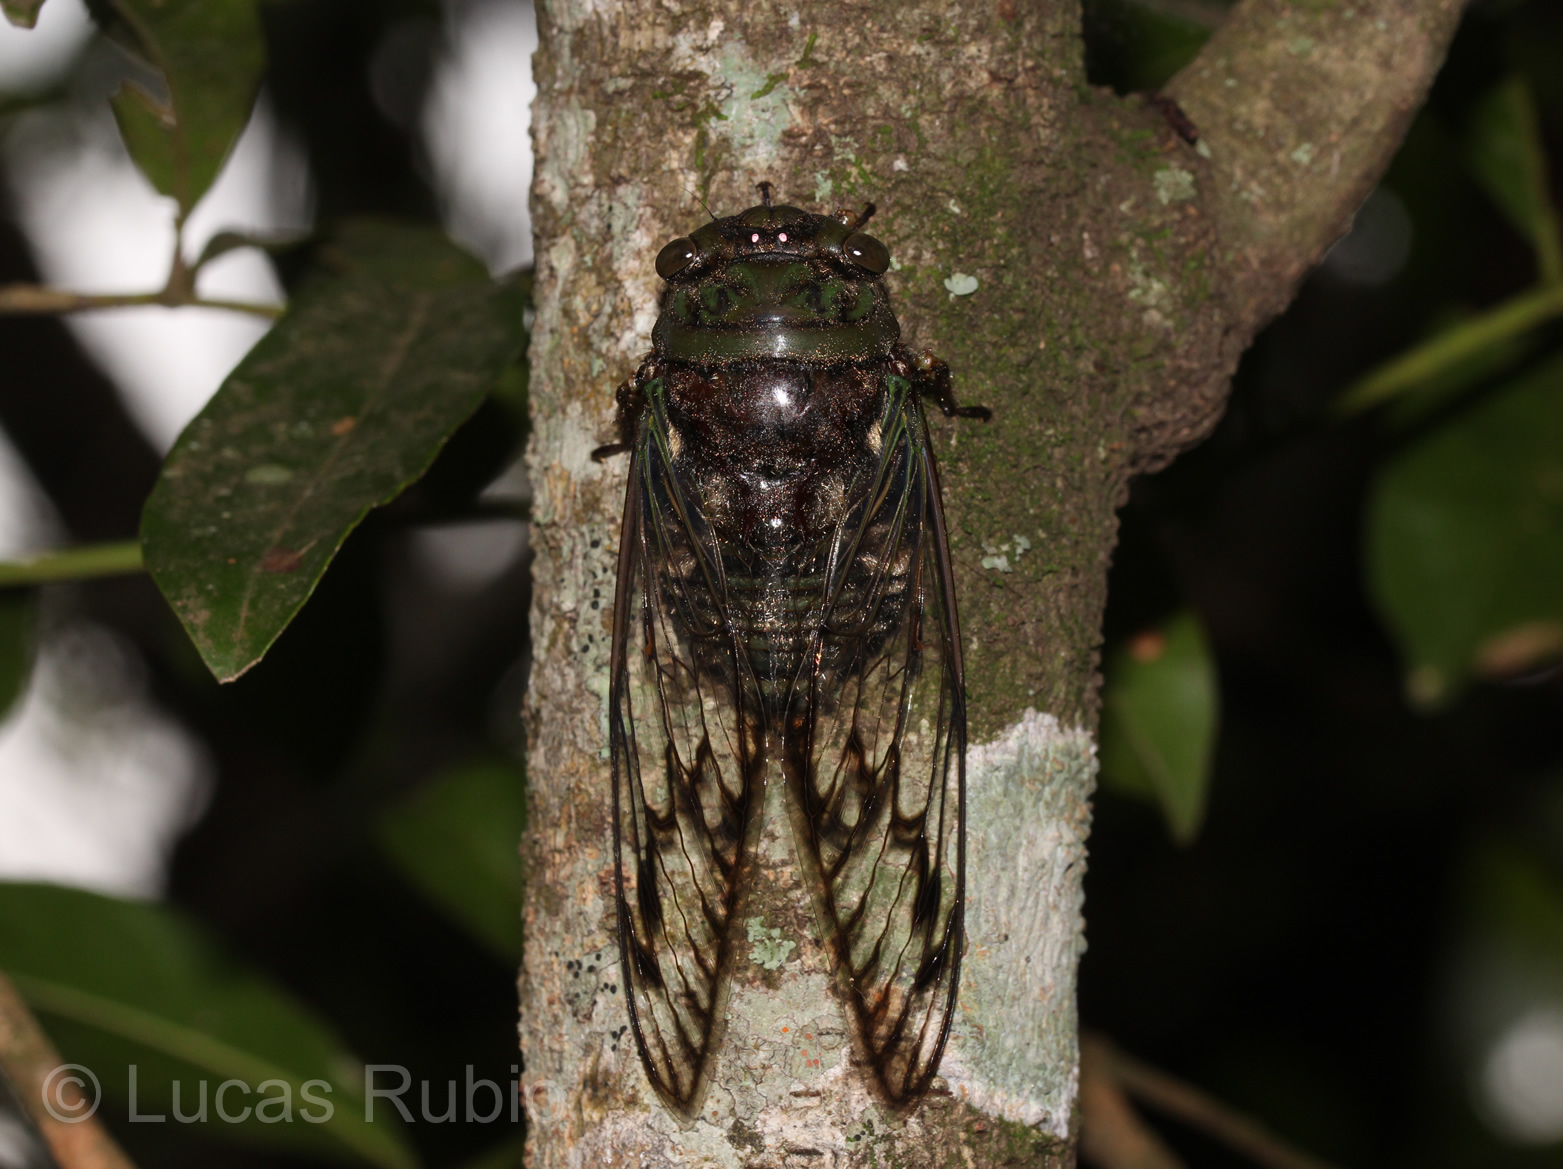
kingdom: Animalia
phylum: Arthropoda
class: Insecta
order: Hemiptera
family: Cicadidae
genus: Fidicina
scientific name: Fidicina torresi
